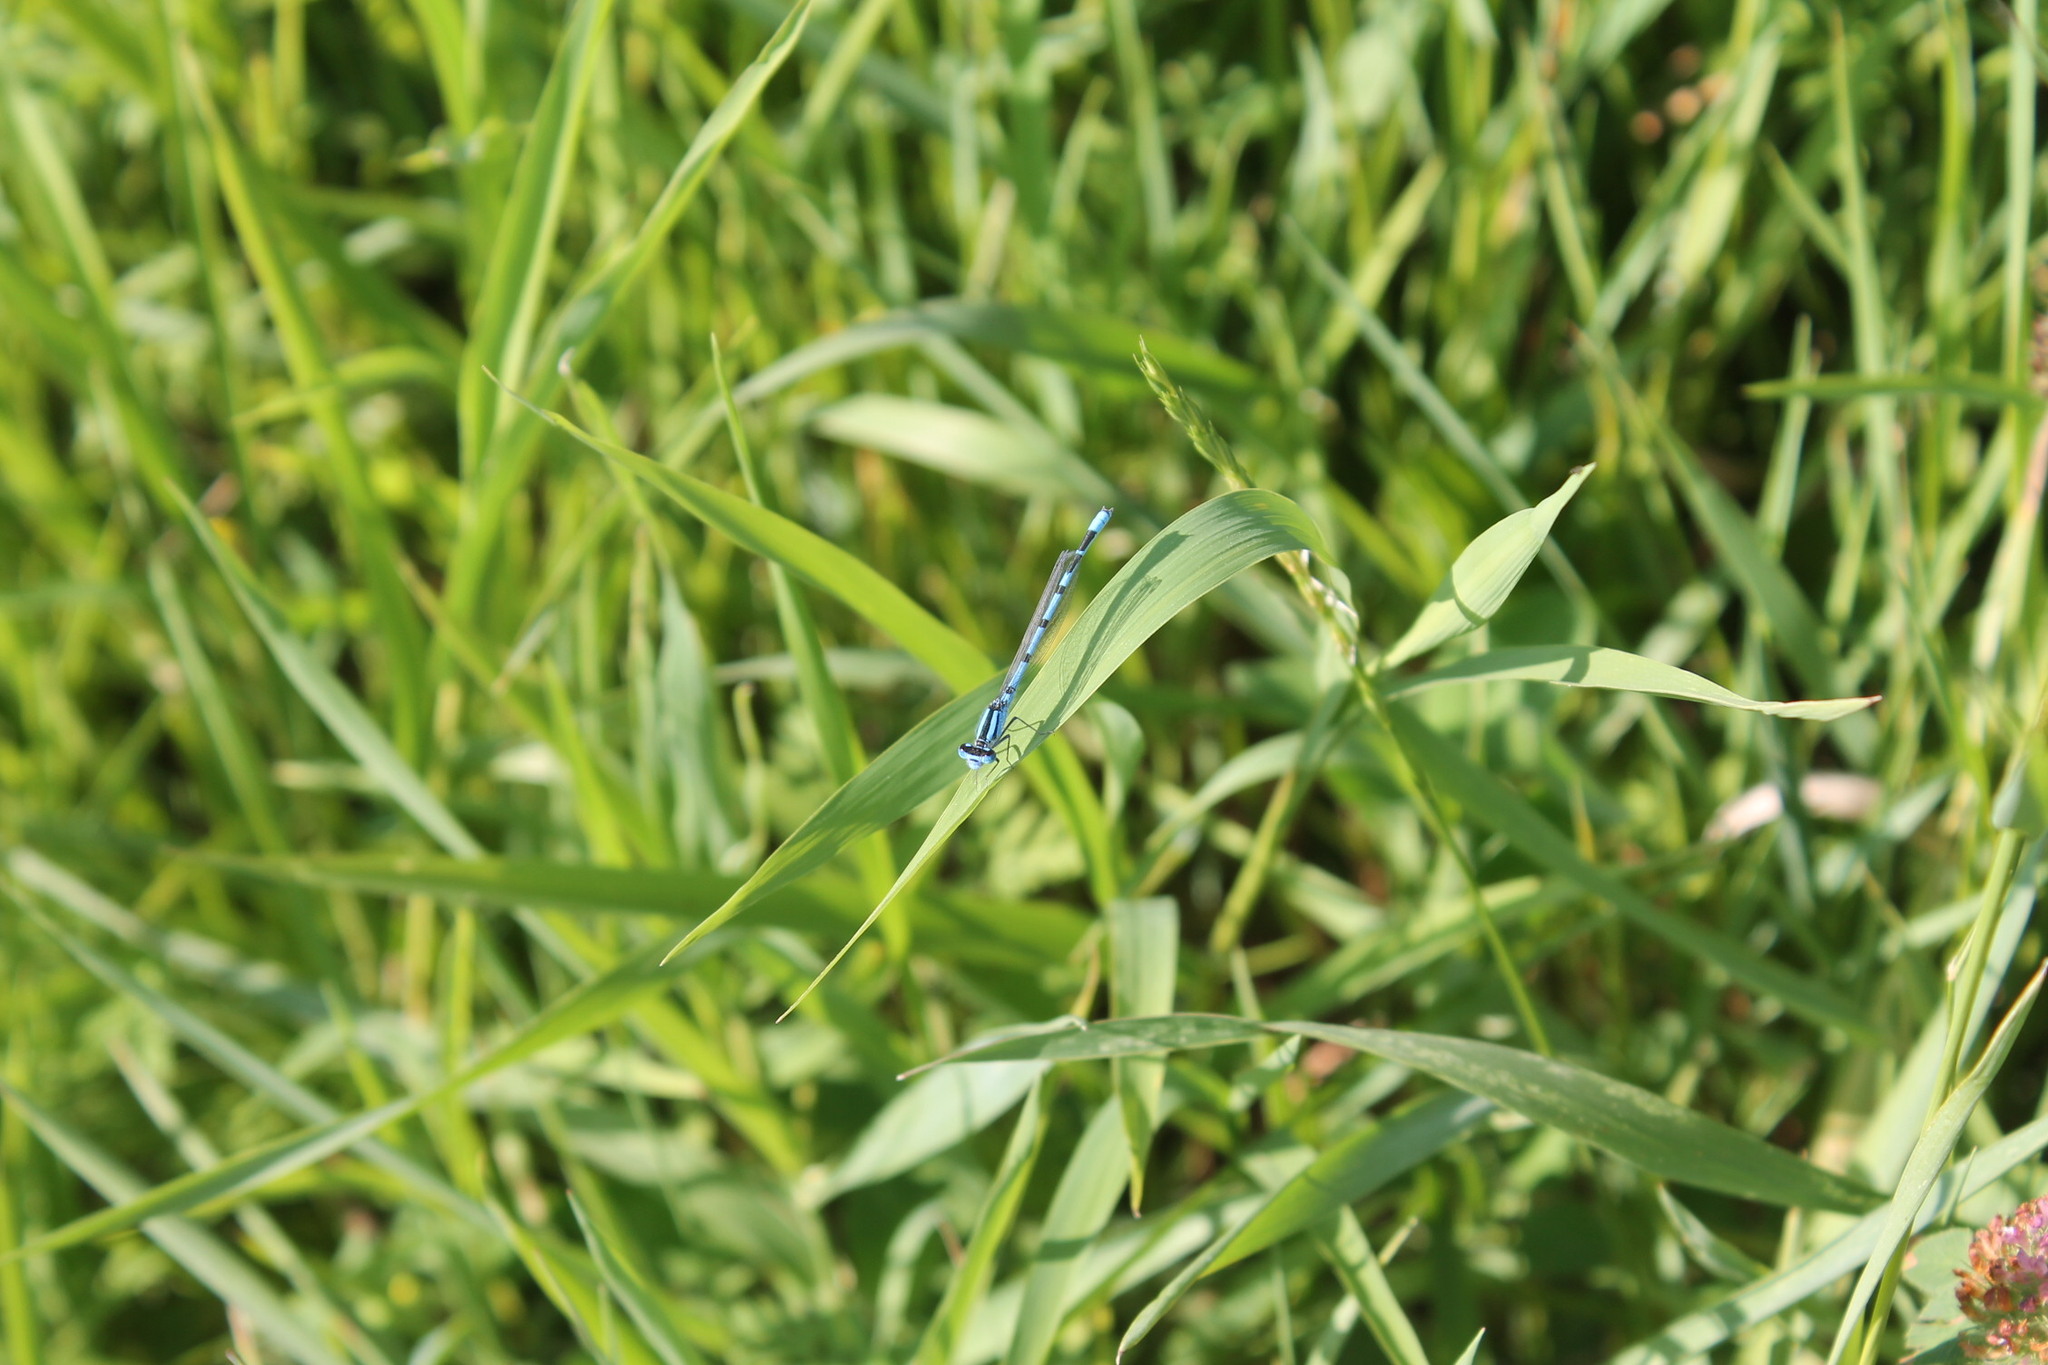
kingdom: Animalia
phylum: Arthropoda
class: Insecta
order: Odonata
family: Coenagrionidae
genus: Enallagma
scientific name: Enallagma civile
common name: Damselfly
